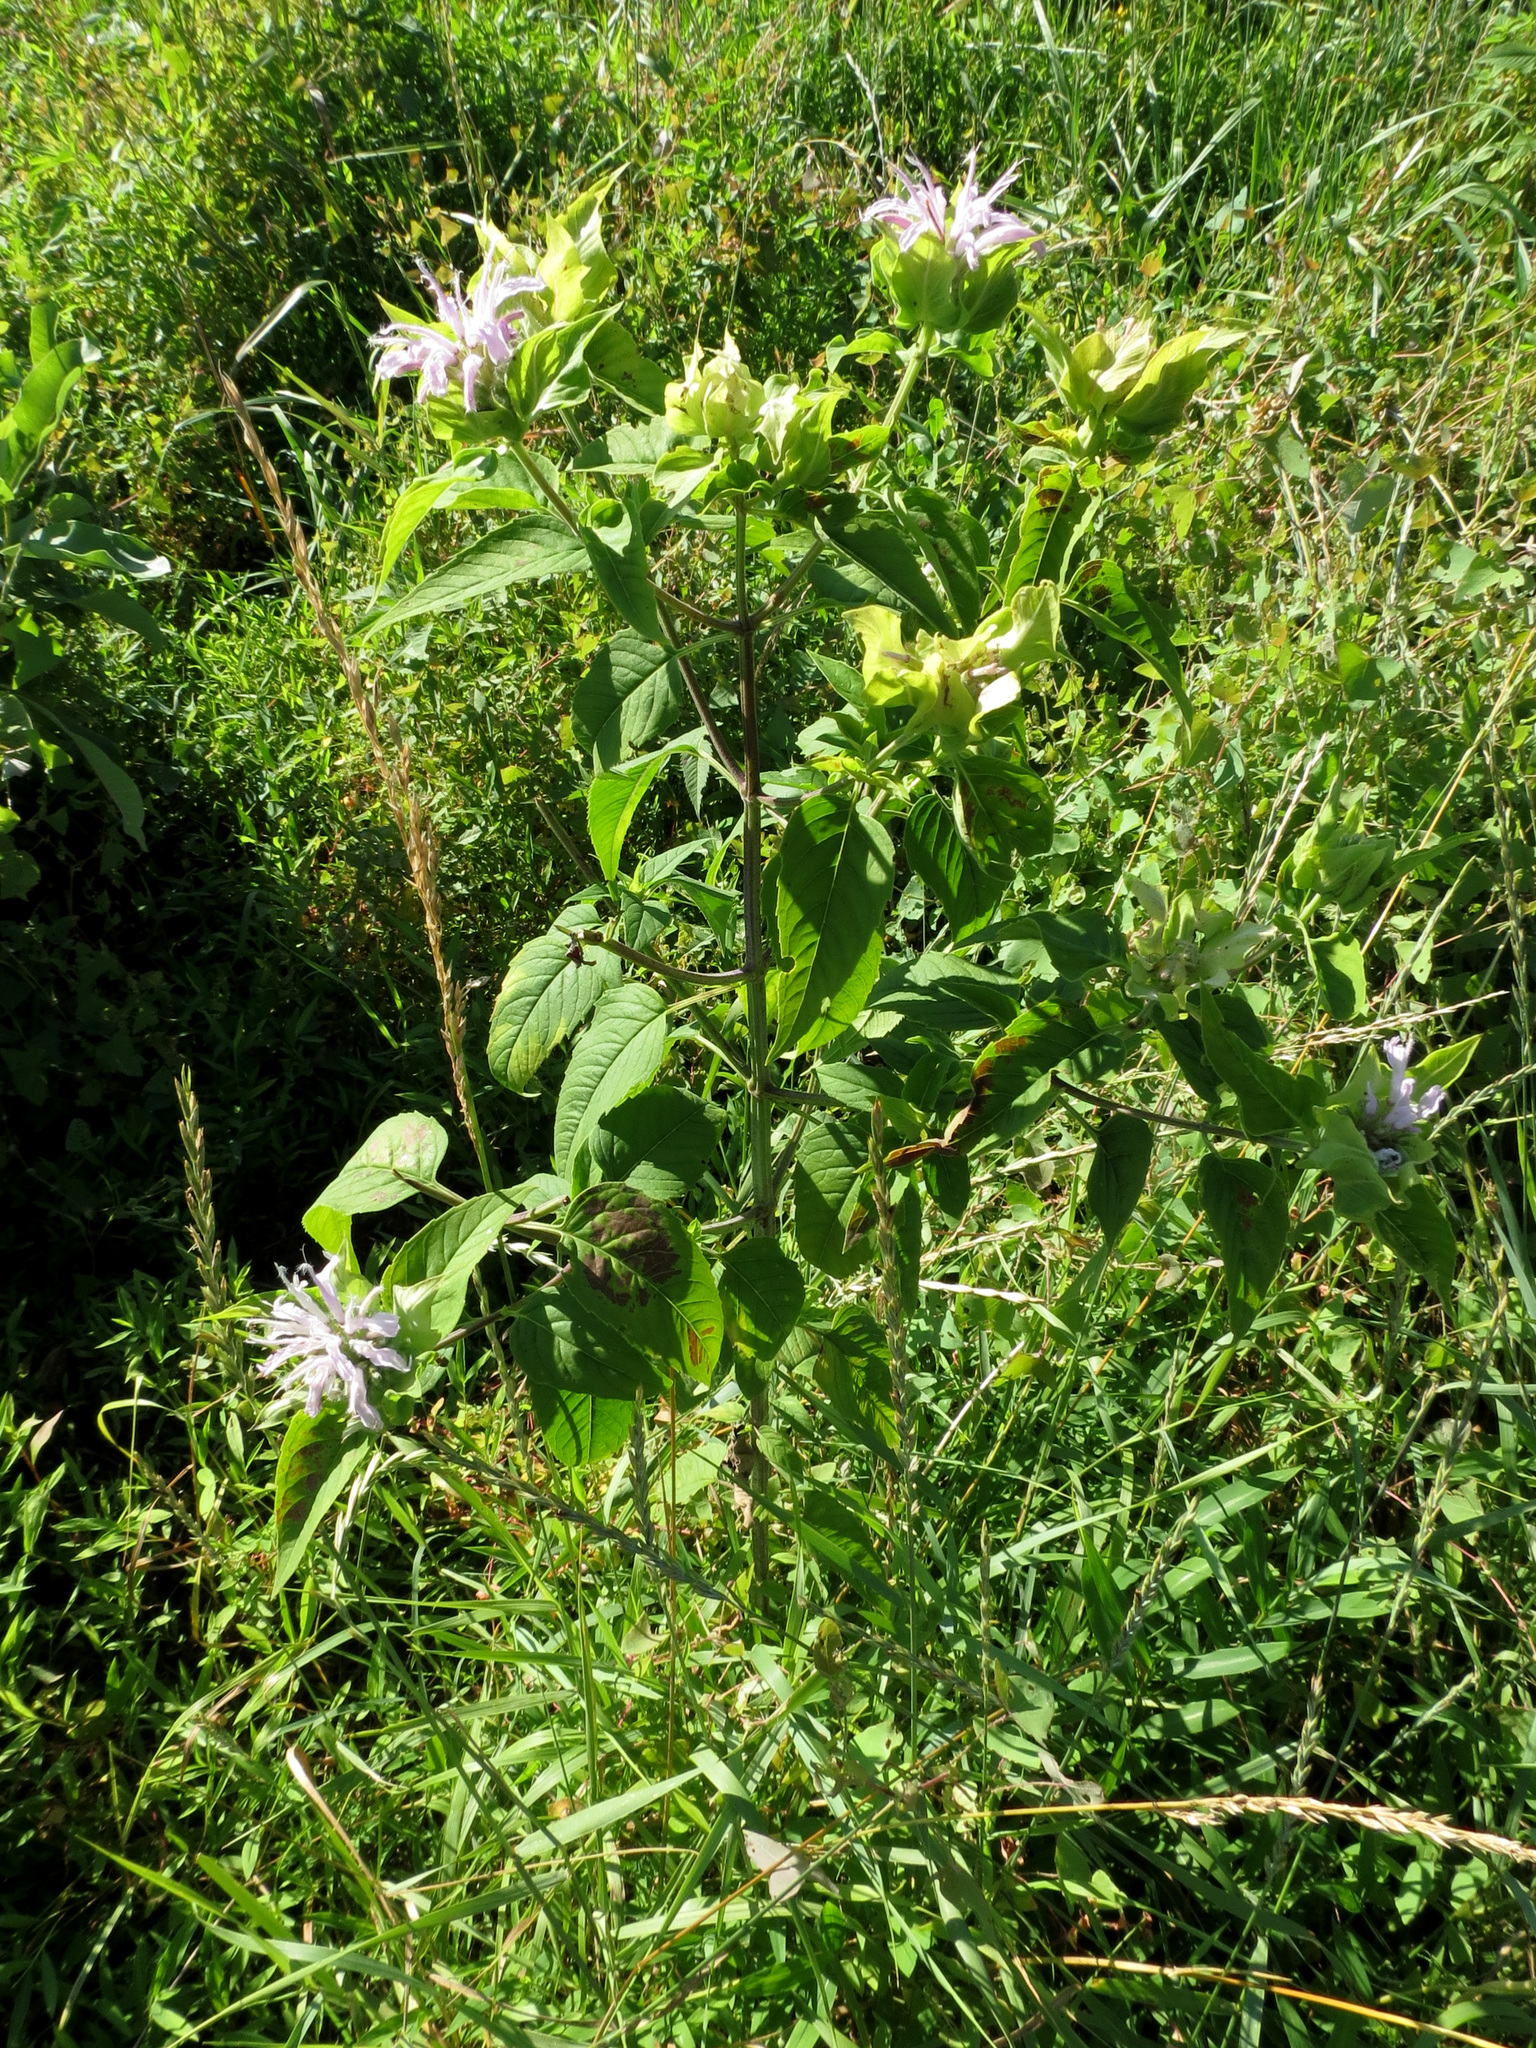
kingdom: Plantae
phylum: Tracheophyta
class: Magnoliopsida
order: Lamiales
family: Lamiaceae
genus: Monarda
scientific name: Monarda fistulosa
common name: Purple beebalm
